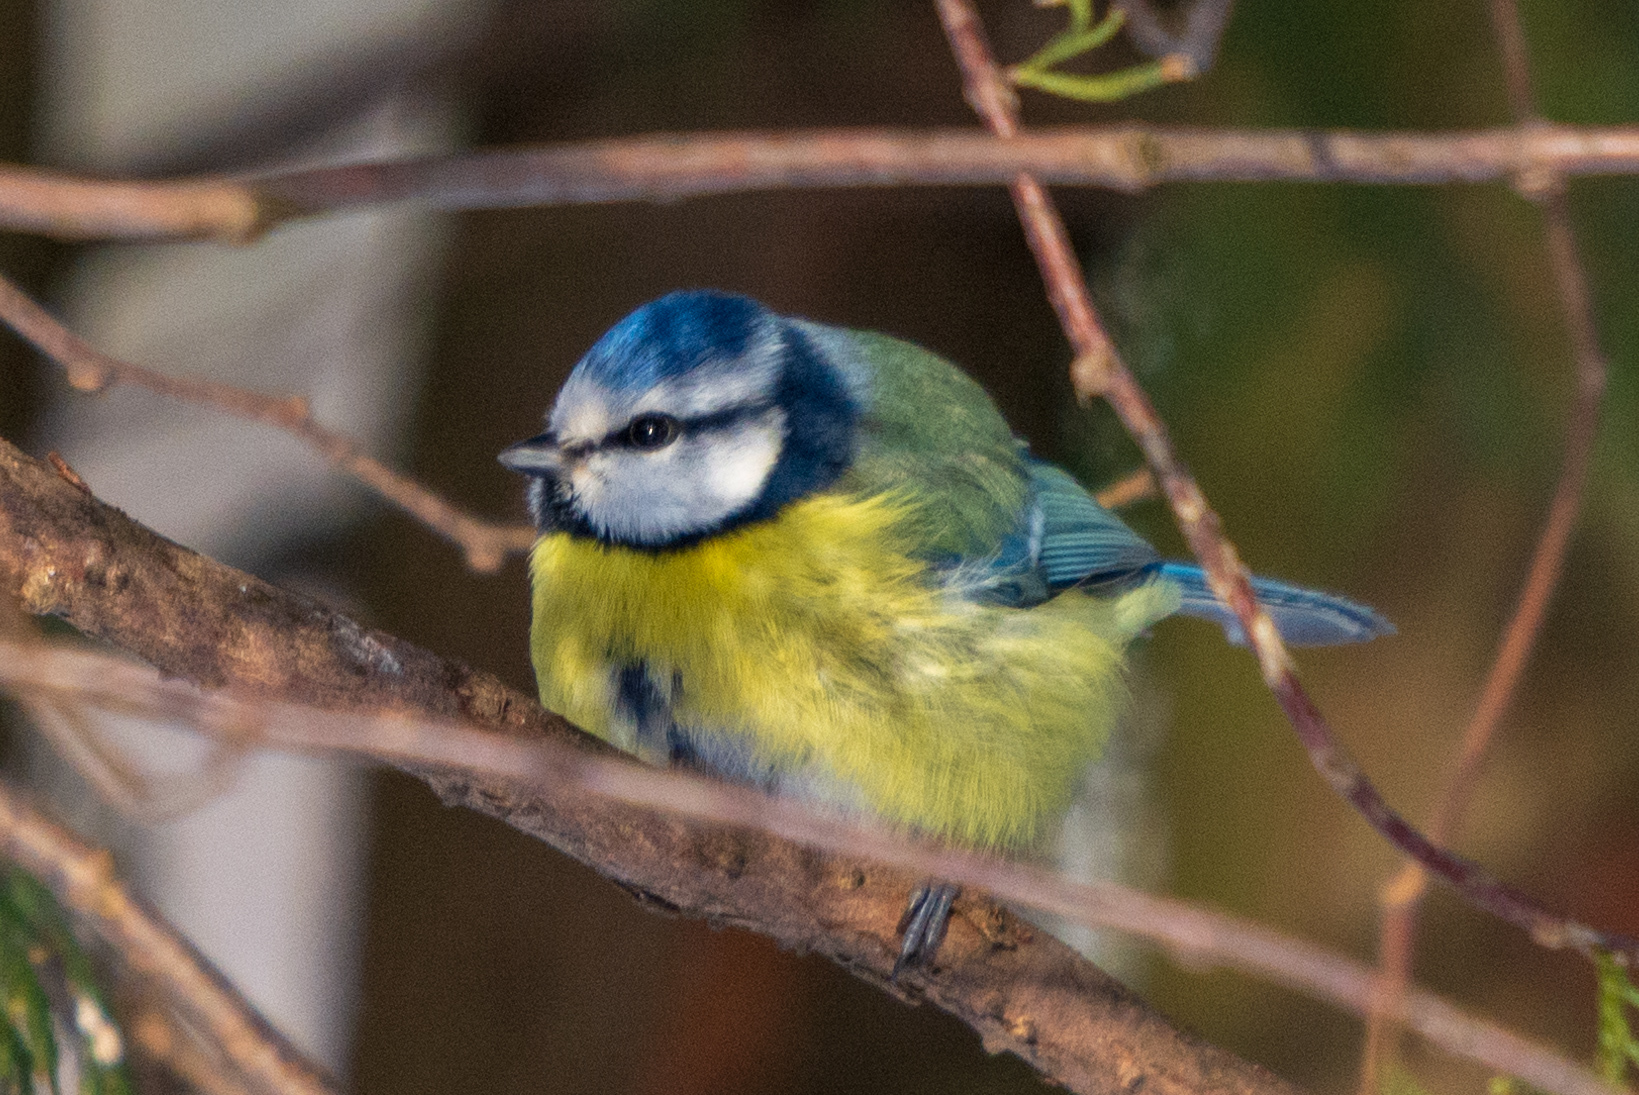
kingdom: Animalia
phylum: Chordata
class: Aves
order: Passeriformes
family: Paridae
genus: Cyanistes
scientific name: Cyanistes caeruleus
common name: Eurasian blue tit
